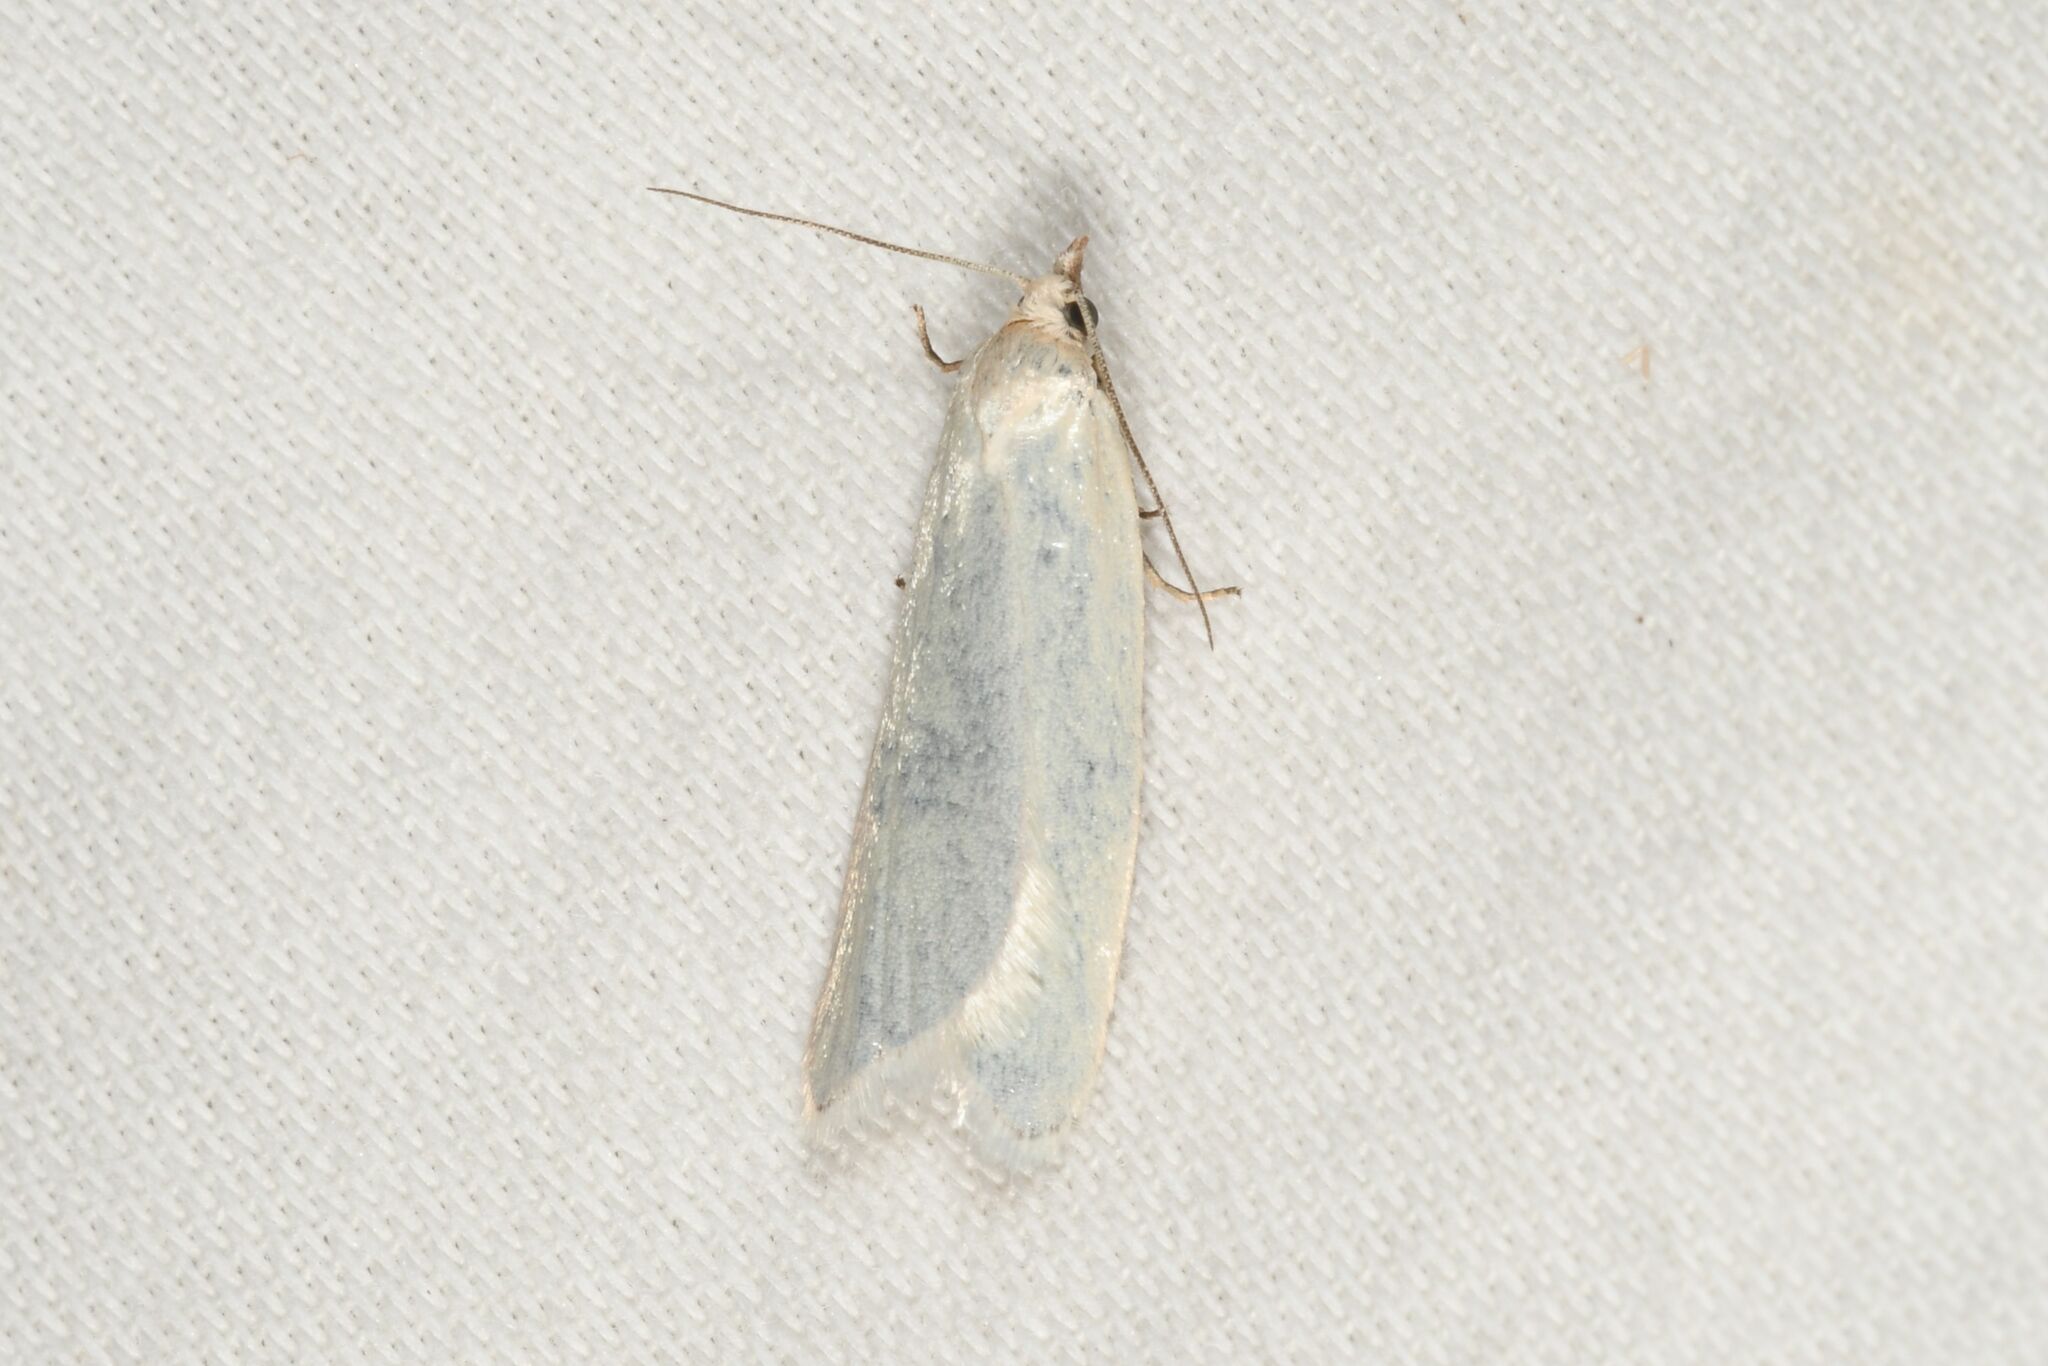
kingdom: Animalia
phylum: Arthropoda
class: Insecta
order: Lepidoptera
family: Tortricidae
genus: Eana
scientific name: Eana argentana
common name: Silver shade
